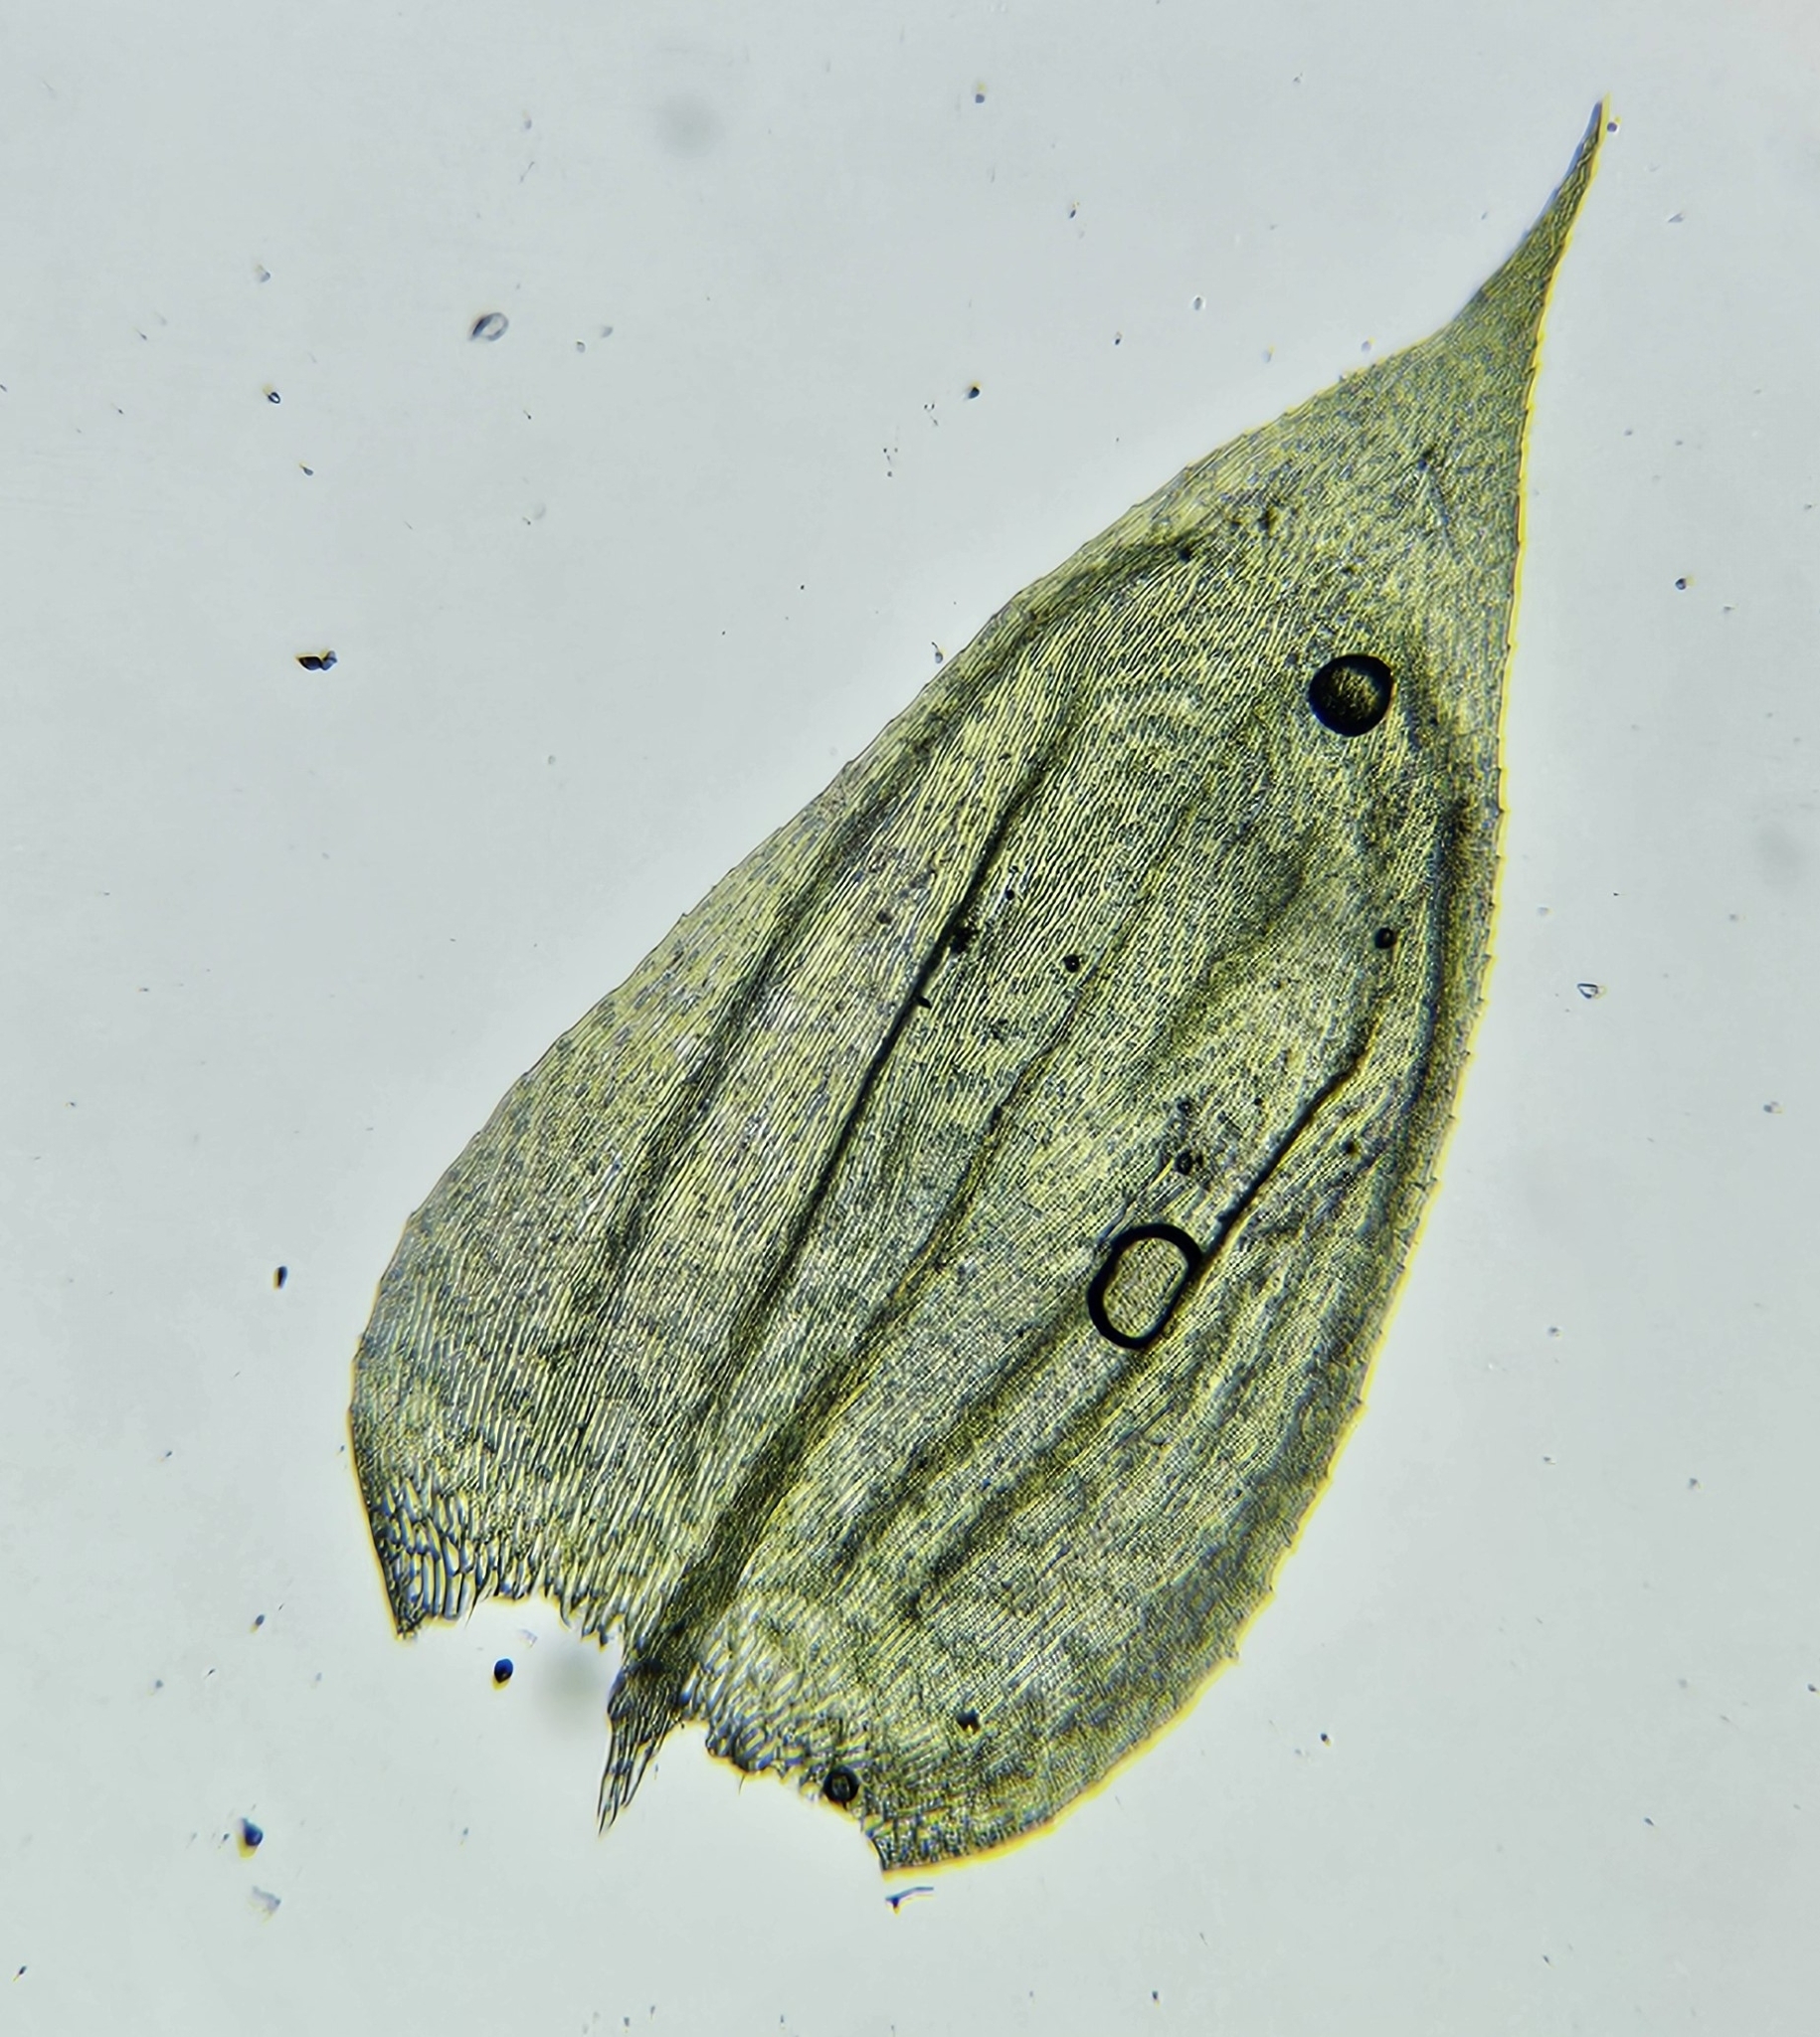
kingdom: Plantae
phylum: Bryophyta
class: Bryopsida
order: Hypnales
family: Brachytheciaceae
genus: Brachythecium
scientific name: Brachythecium rutabulum
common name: Rough-stalked feather-moss
